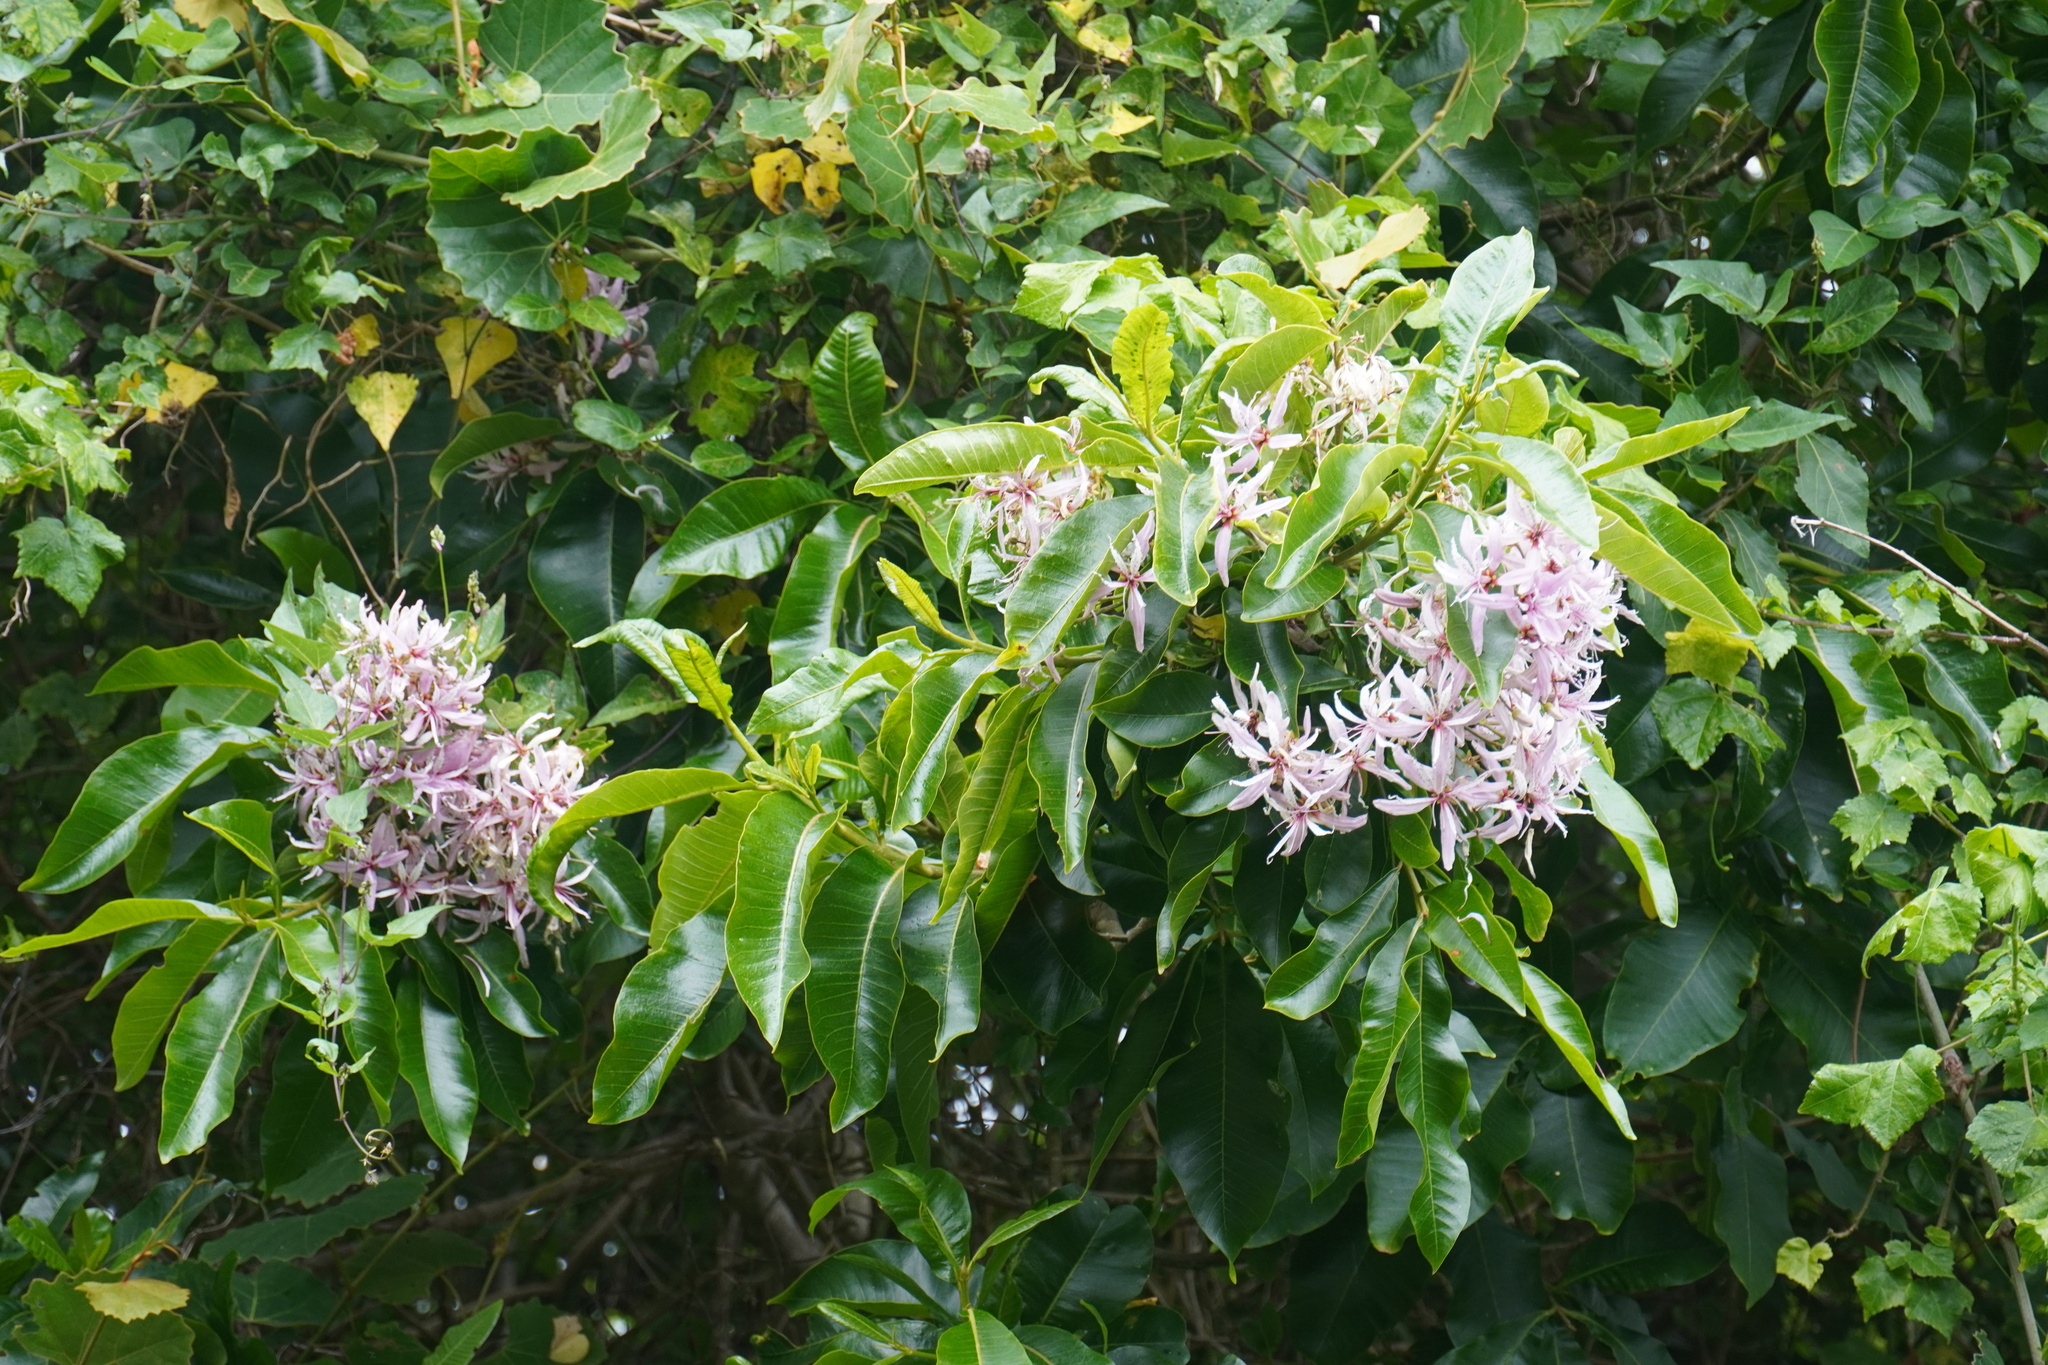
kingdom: Plantae
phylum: Tracheophyta
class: Magnoliopsida
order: Sapindales
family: Rutaceae
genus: Calodendrum
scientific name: Calodendrum capense
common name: Cape chestnut
